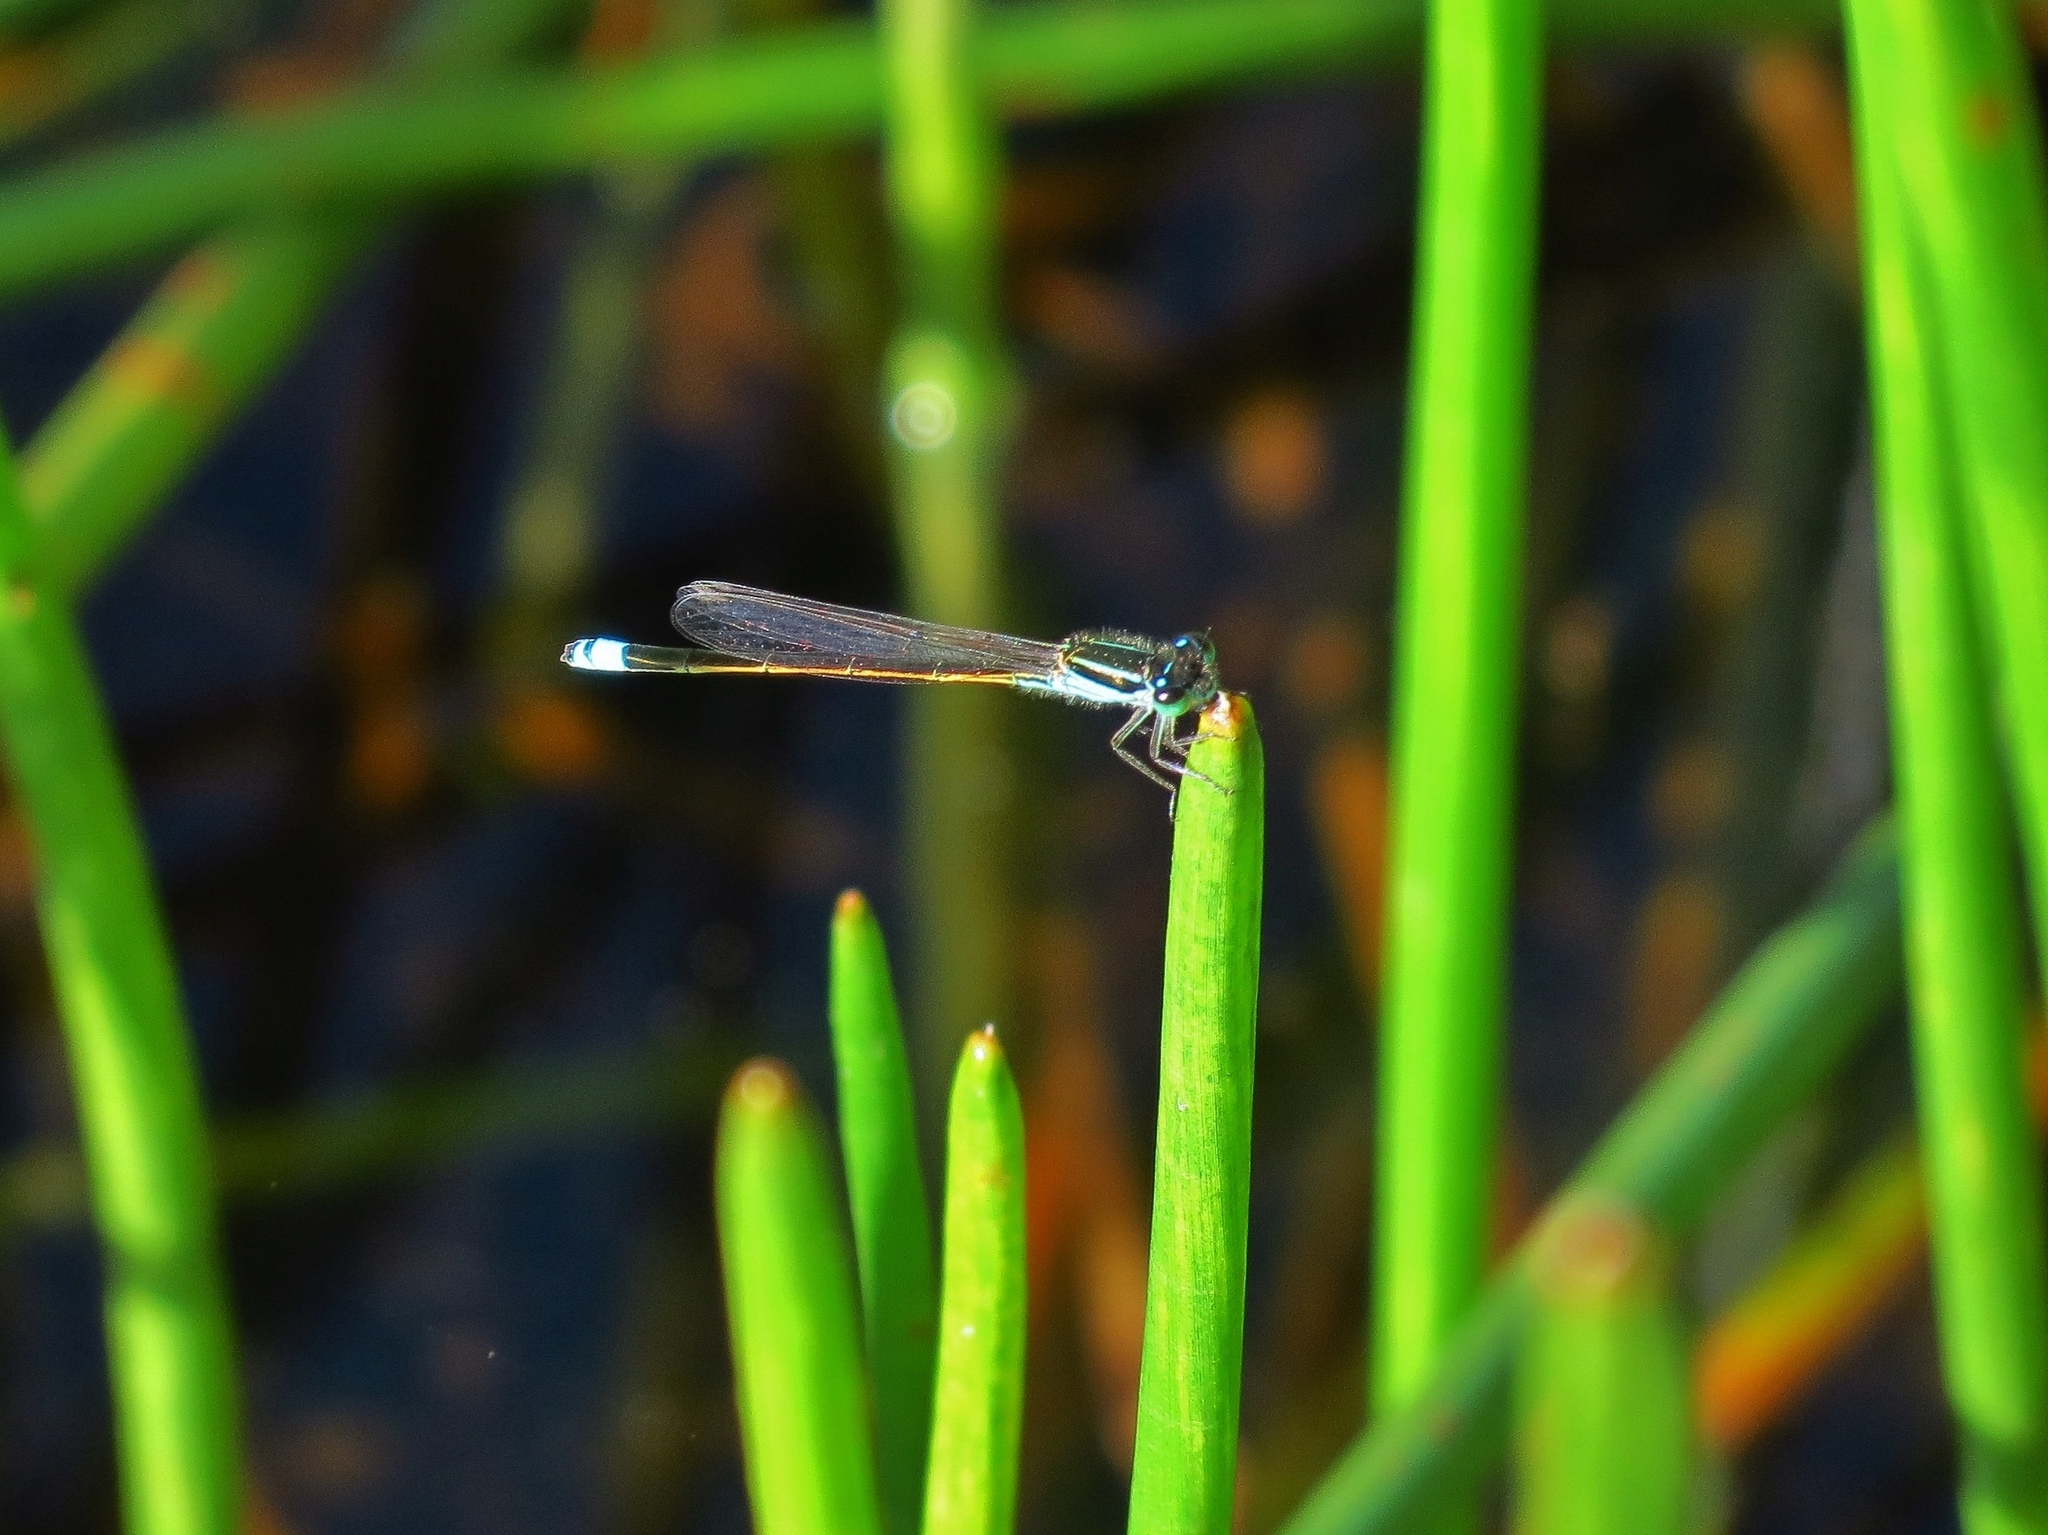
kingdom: Animalia
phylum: Arthropoda
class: Insecta
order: Odonata
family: Coenagrionidae
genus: Ischnura
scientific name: Ischnura ramburii
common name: Rambur's forktail
